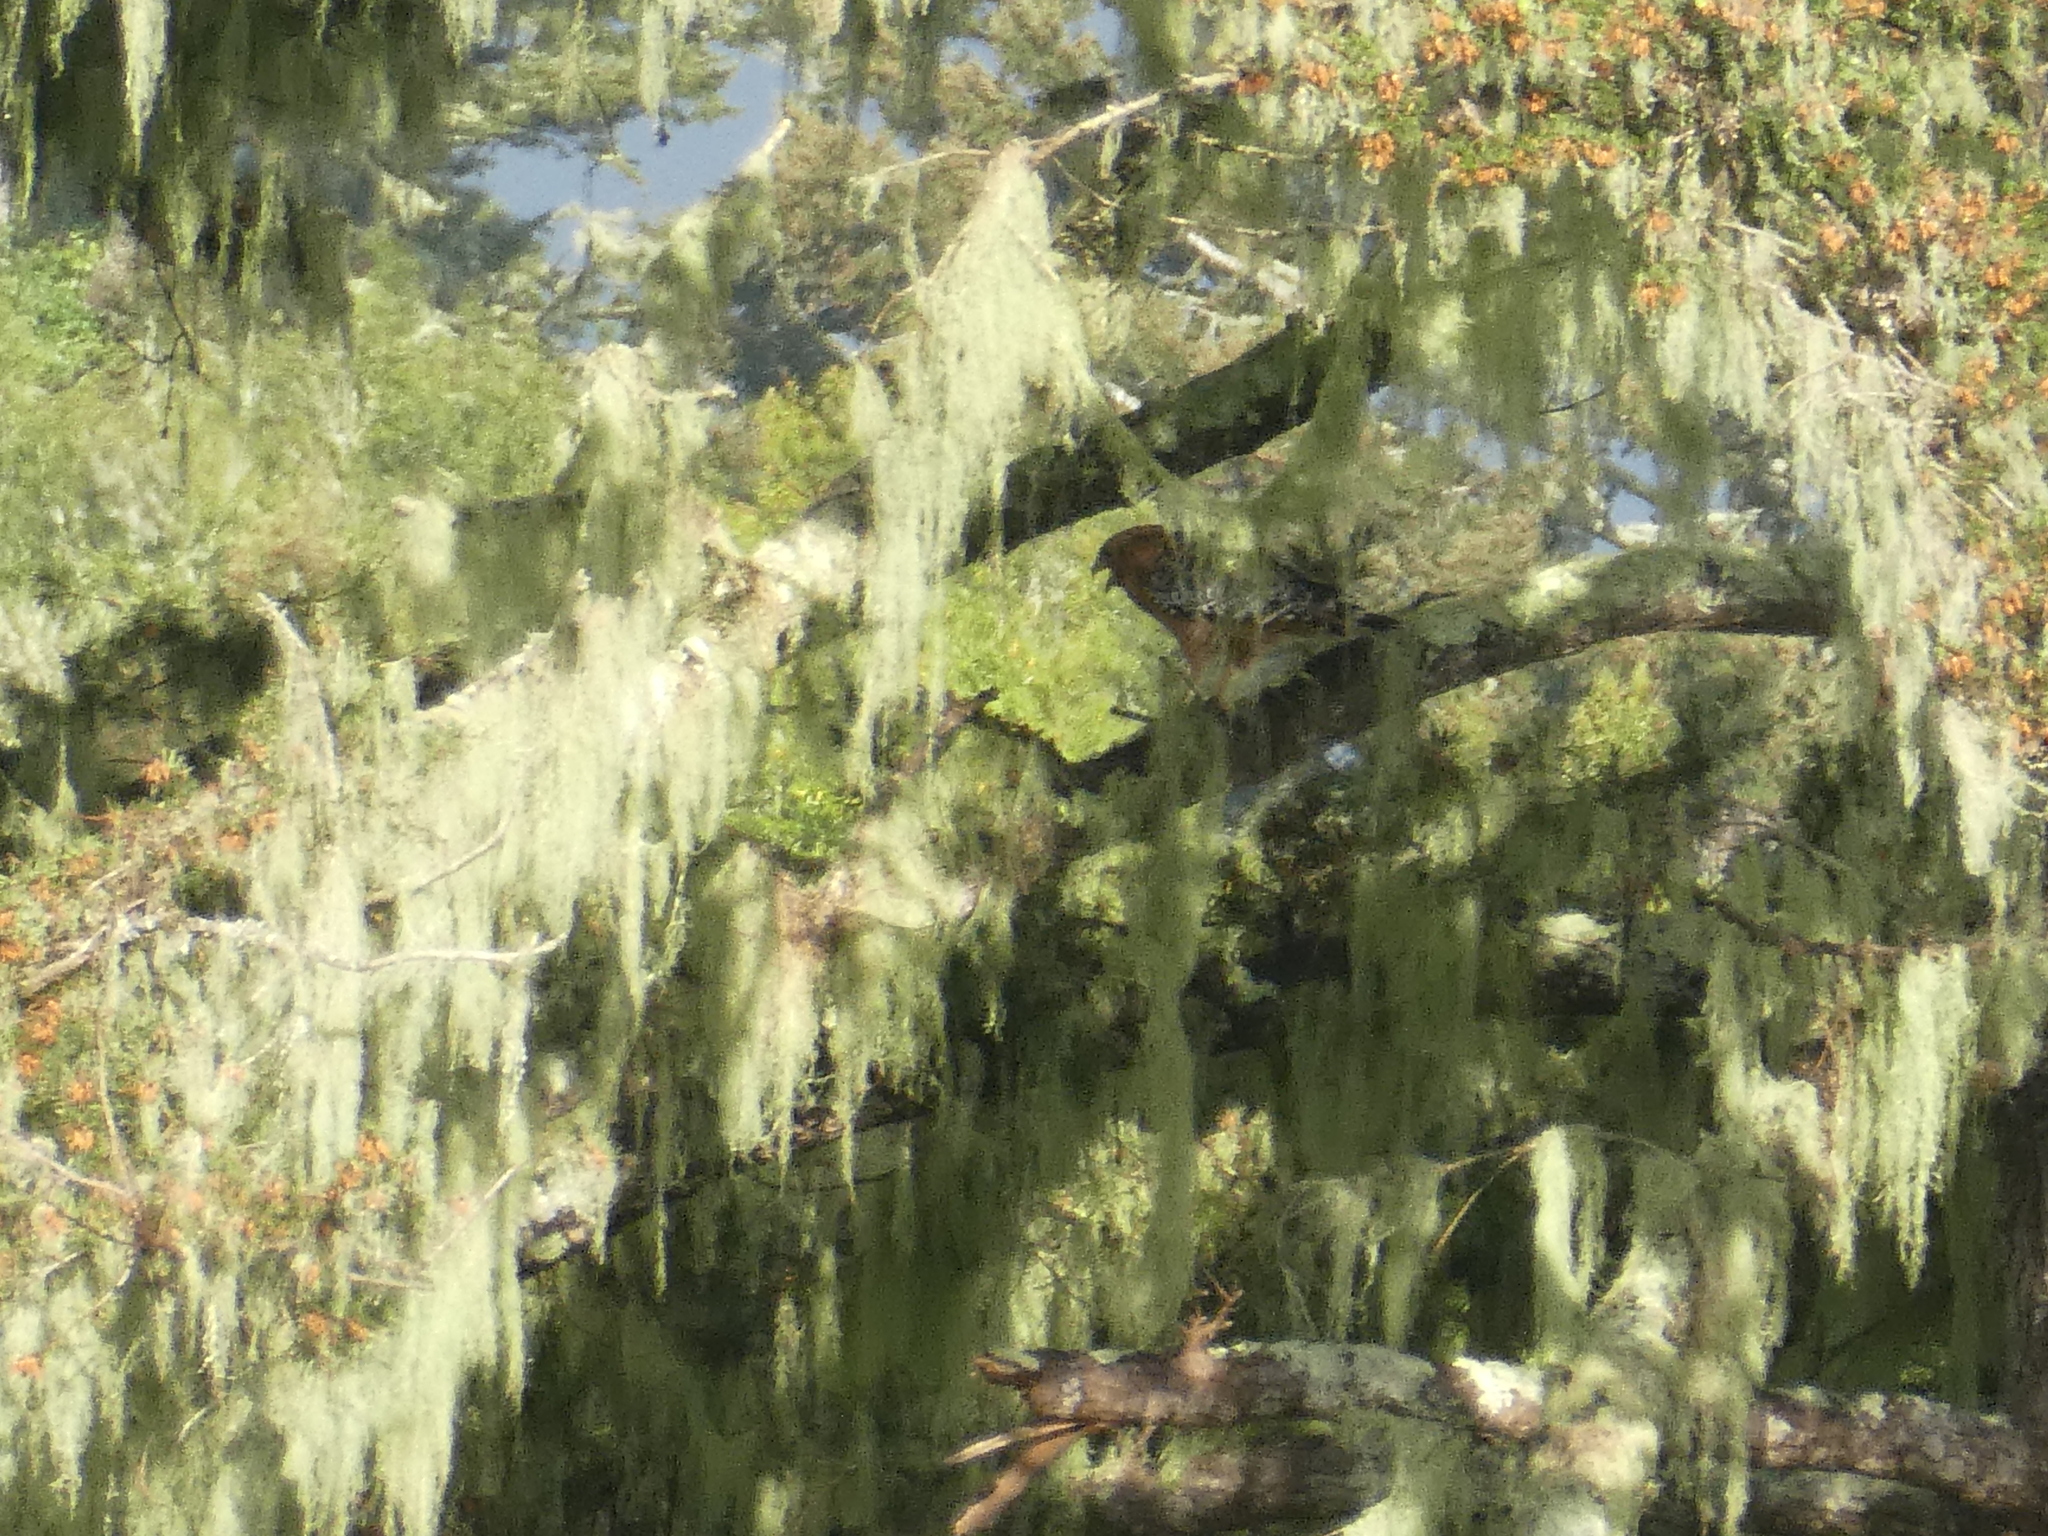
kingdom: Animalia
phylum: Chordata
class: Aves
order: Accipitriformes
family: Accipitridae
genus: Buteo
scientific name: Buteo lineatus
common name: Red-shouldered hawk
